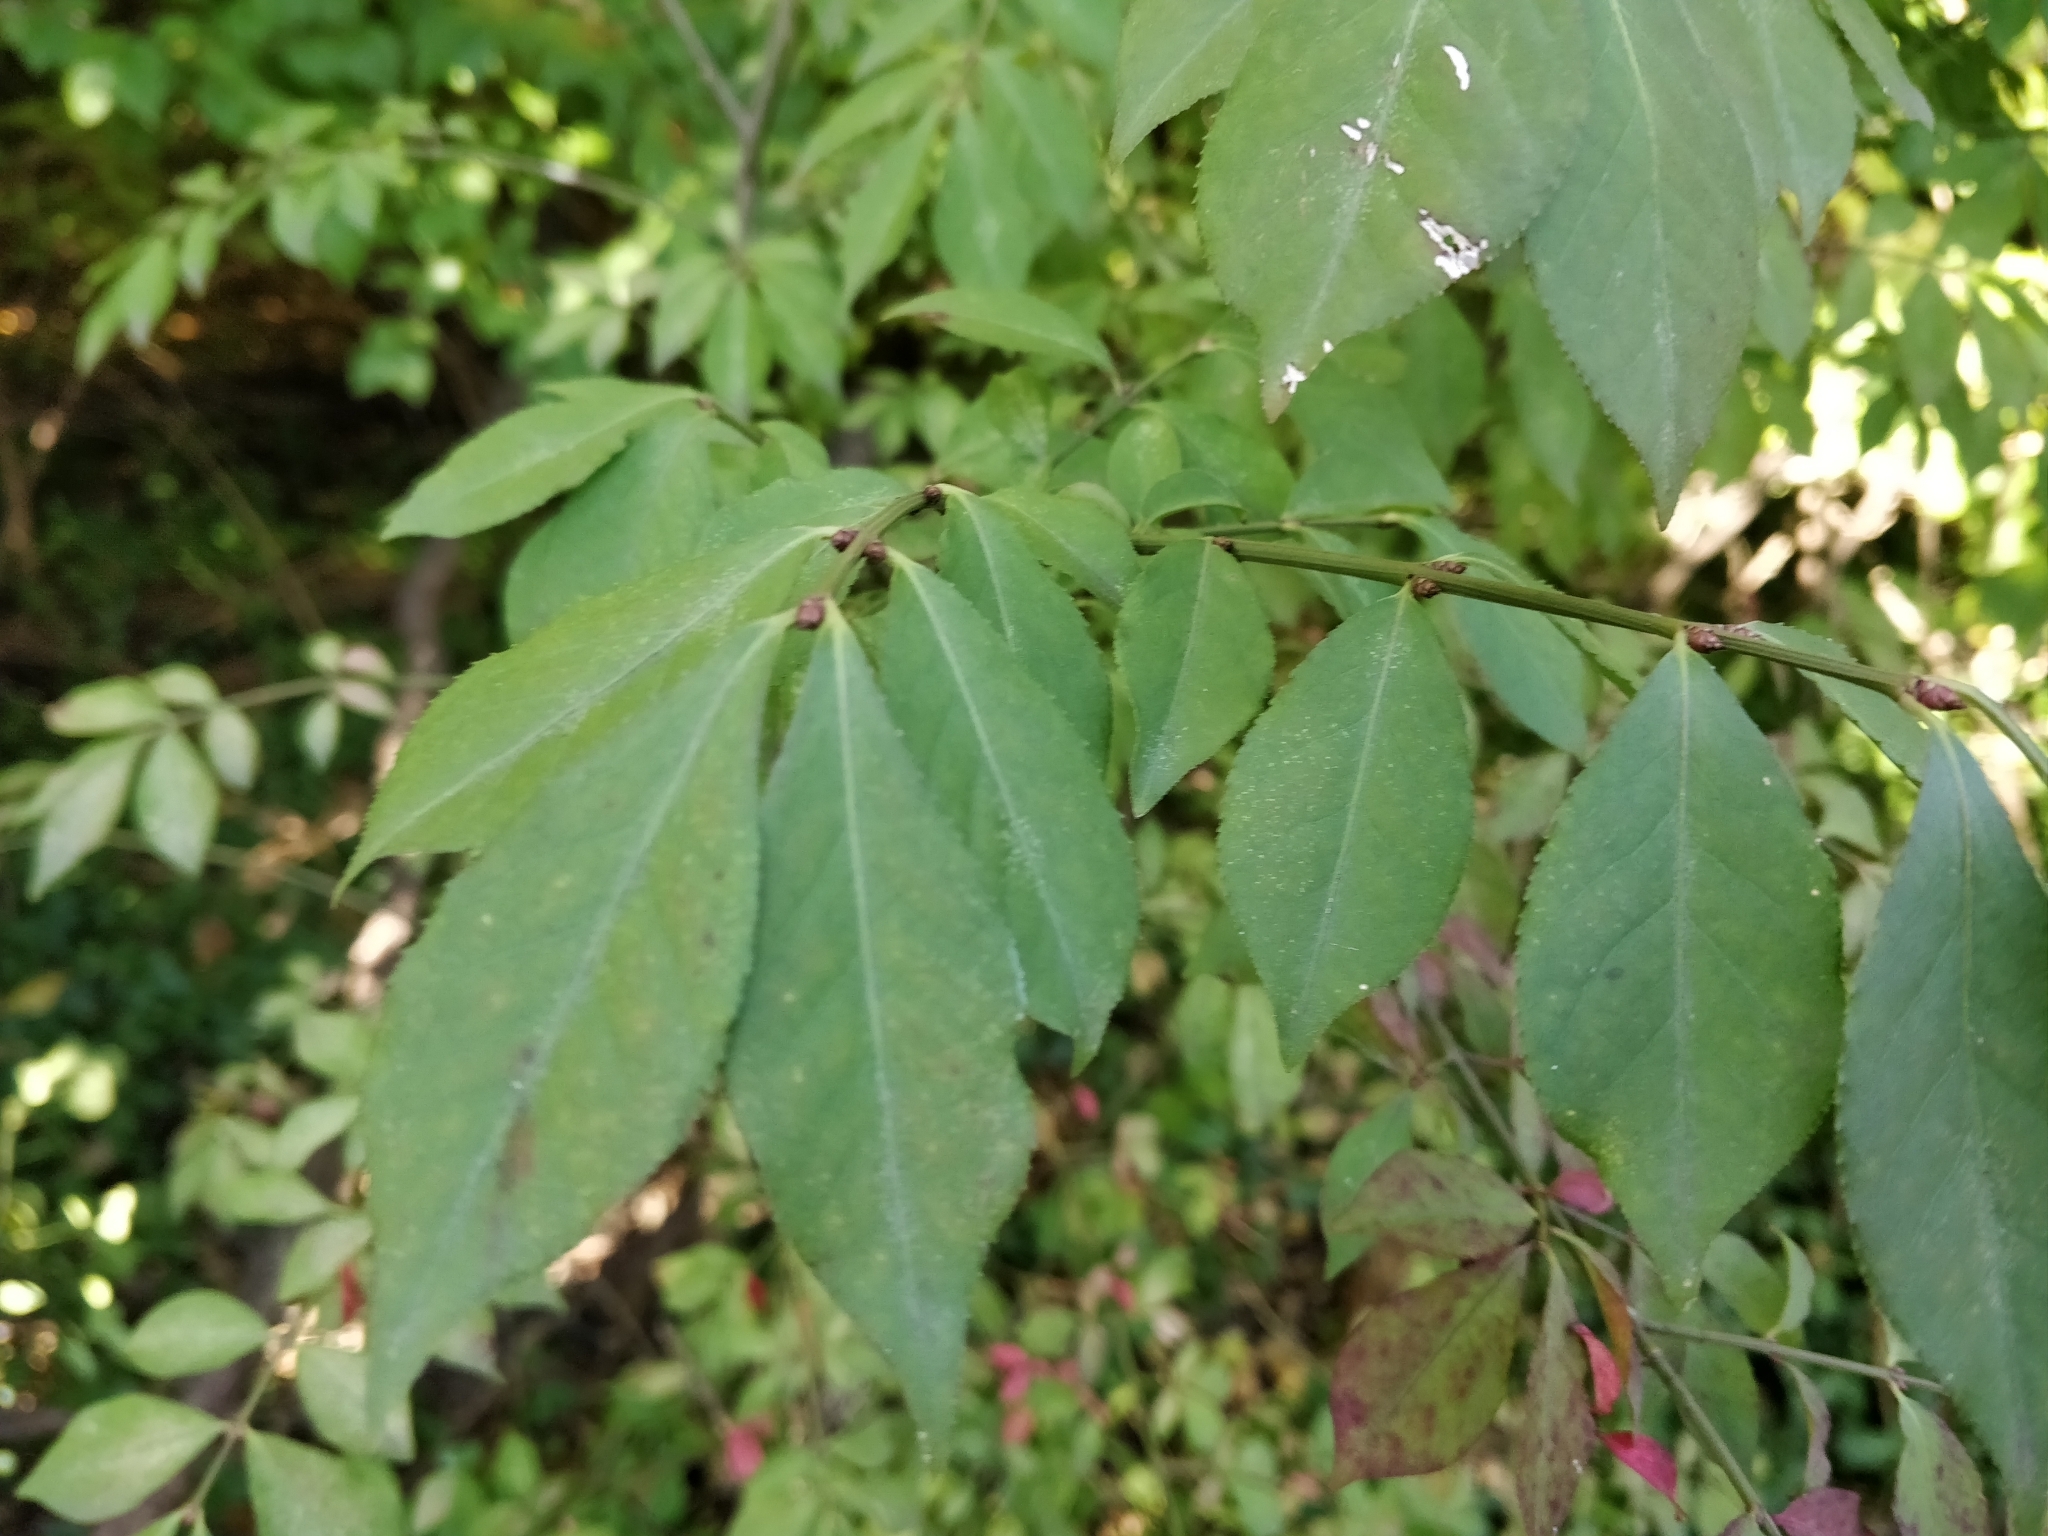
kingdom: Plantae
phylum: Tracheophyta
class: Magnoliopsida
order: Celastrales
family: Celastraceae
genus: Euonymus
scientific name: Euonymus alatus
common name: Winged euonymus
